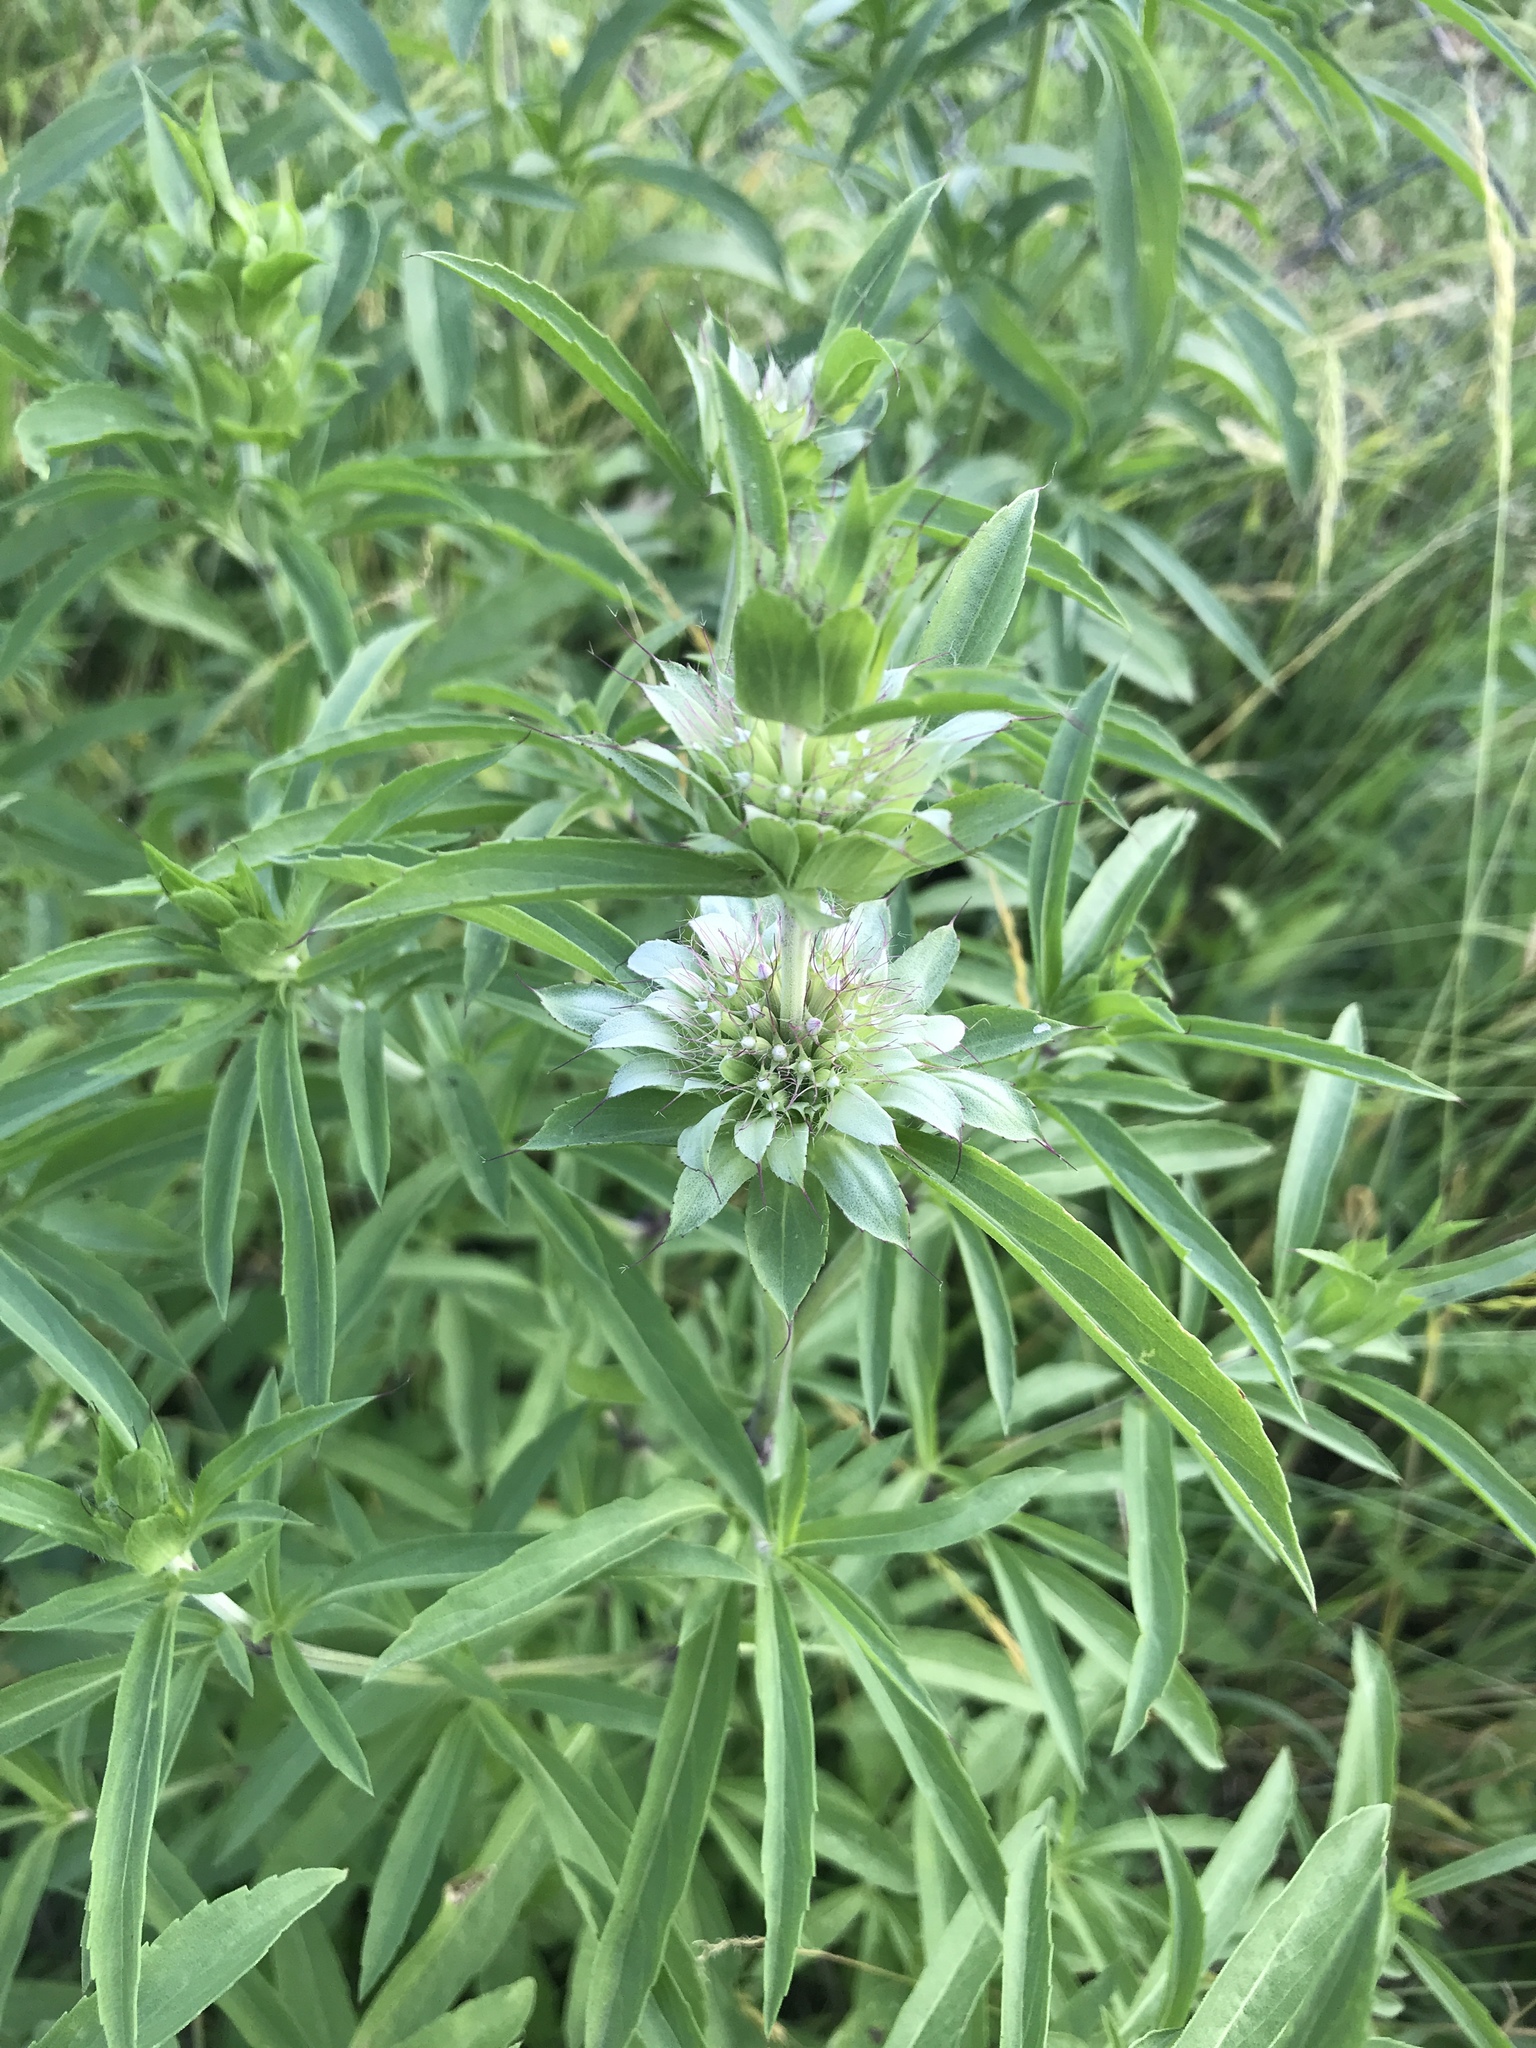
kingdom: Plantae
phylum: Tracheophyta
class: Magnoliopsida
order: Lamiales
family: Lamiaceae
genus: Monarda
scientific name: Monarda punctata
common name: Dotted monarda
